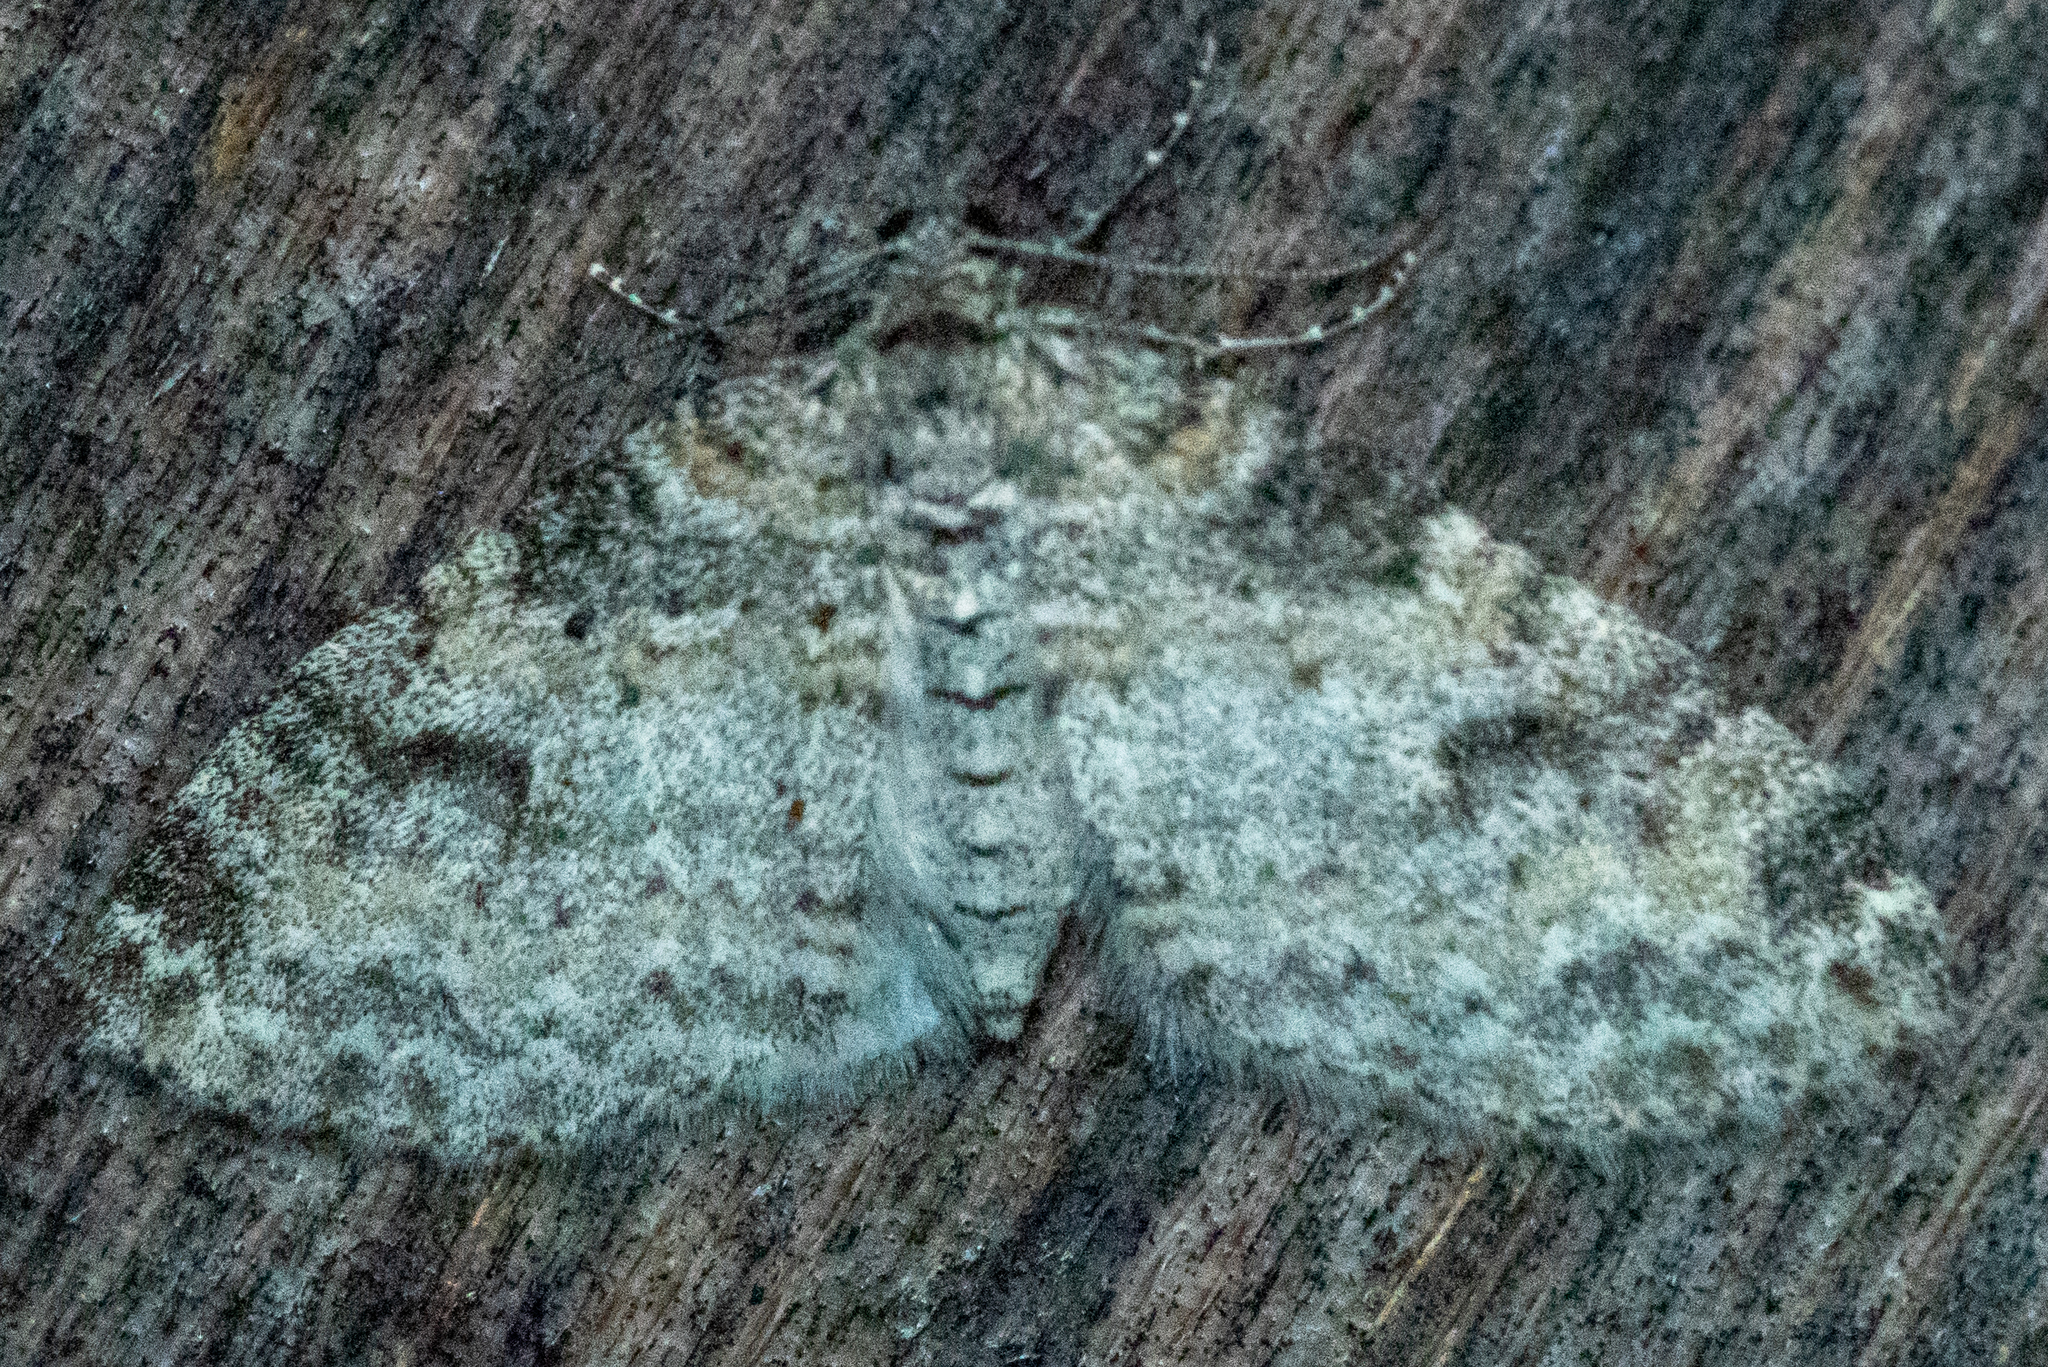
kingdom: Animalia
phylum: Arthropoda
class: Insecta
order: Lepidoptera
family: Geometridae
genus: Lobophora
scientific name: Lobophora nivigerata
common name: Powdered bigwing
